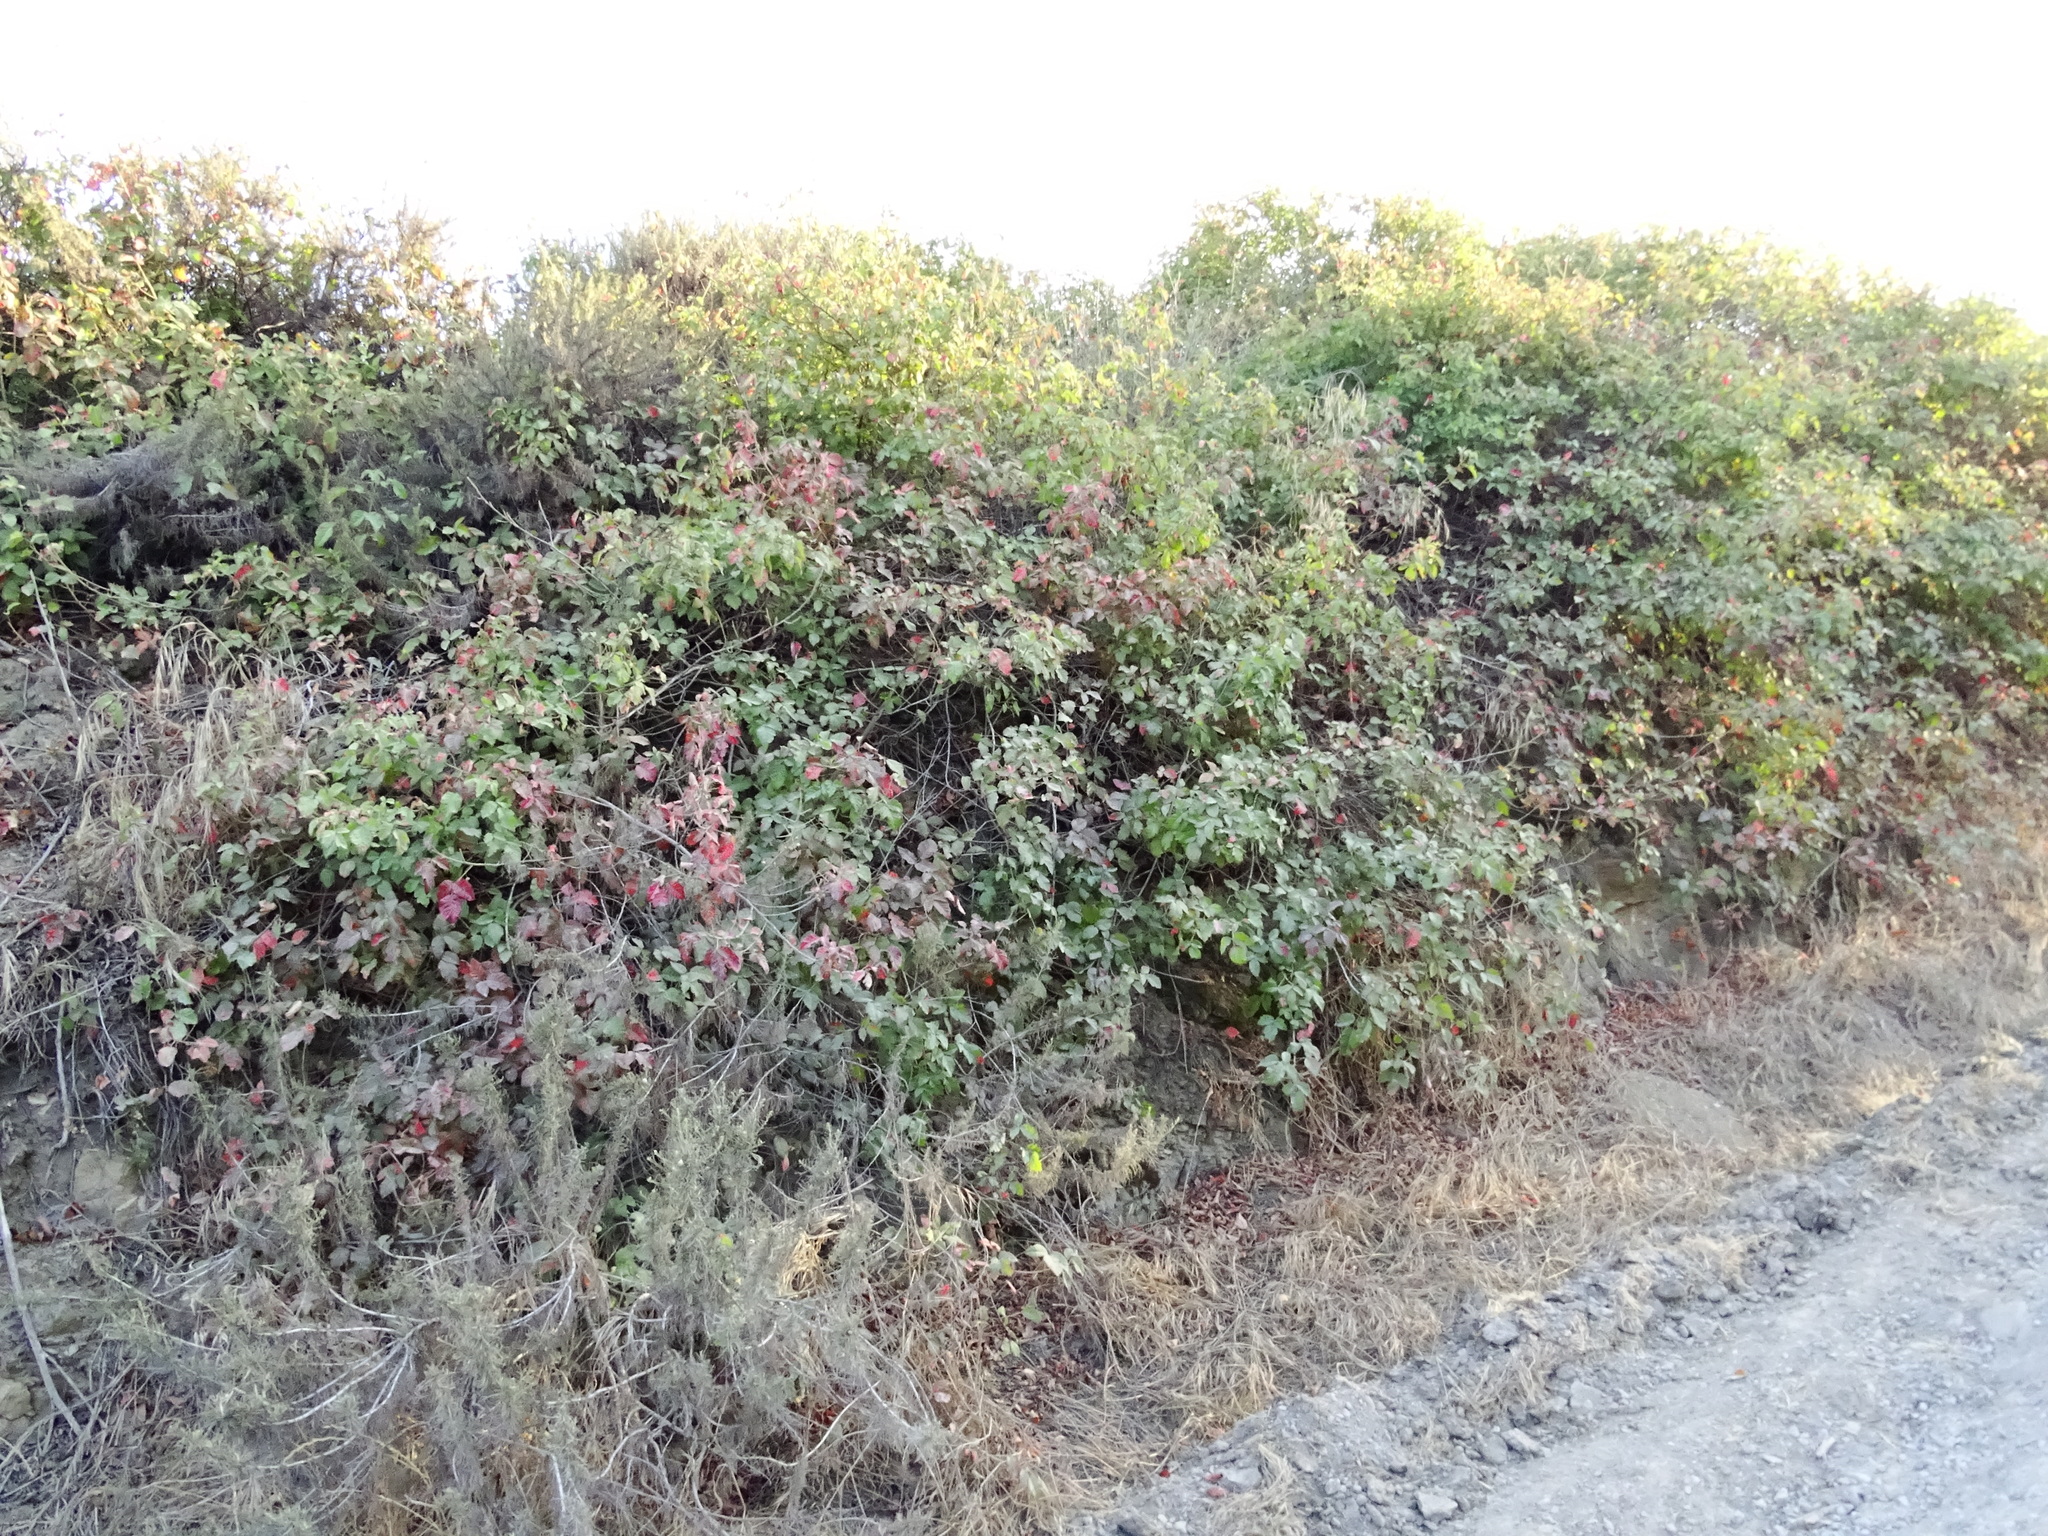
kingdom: Plantae
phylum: Tracheophyta
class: Magnoliopsida
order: Sapindales
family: Anacardiaceae
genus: Toxicodendron
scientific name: Toxicodendron diversilobum
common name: Pacific poison-oak
